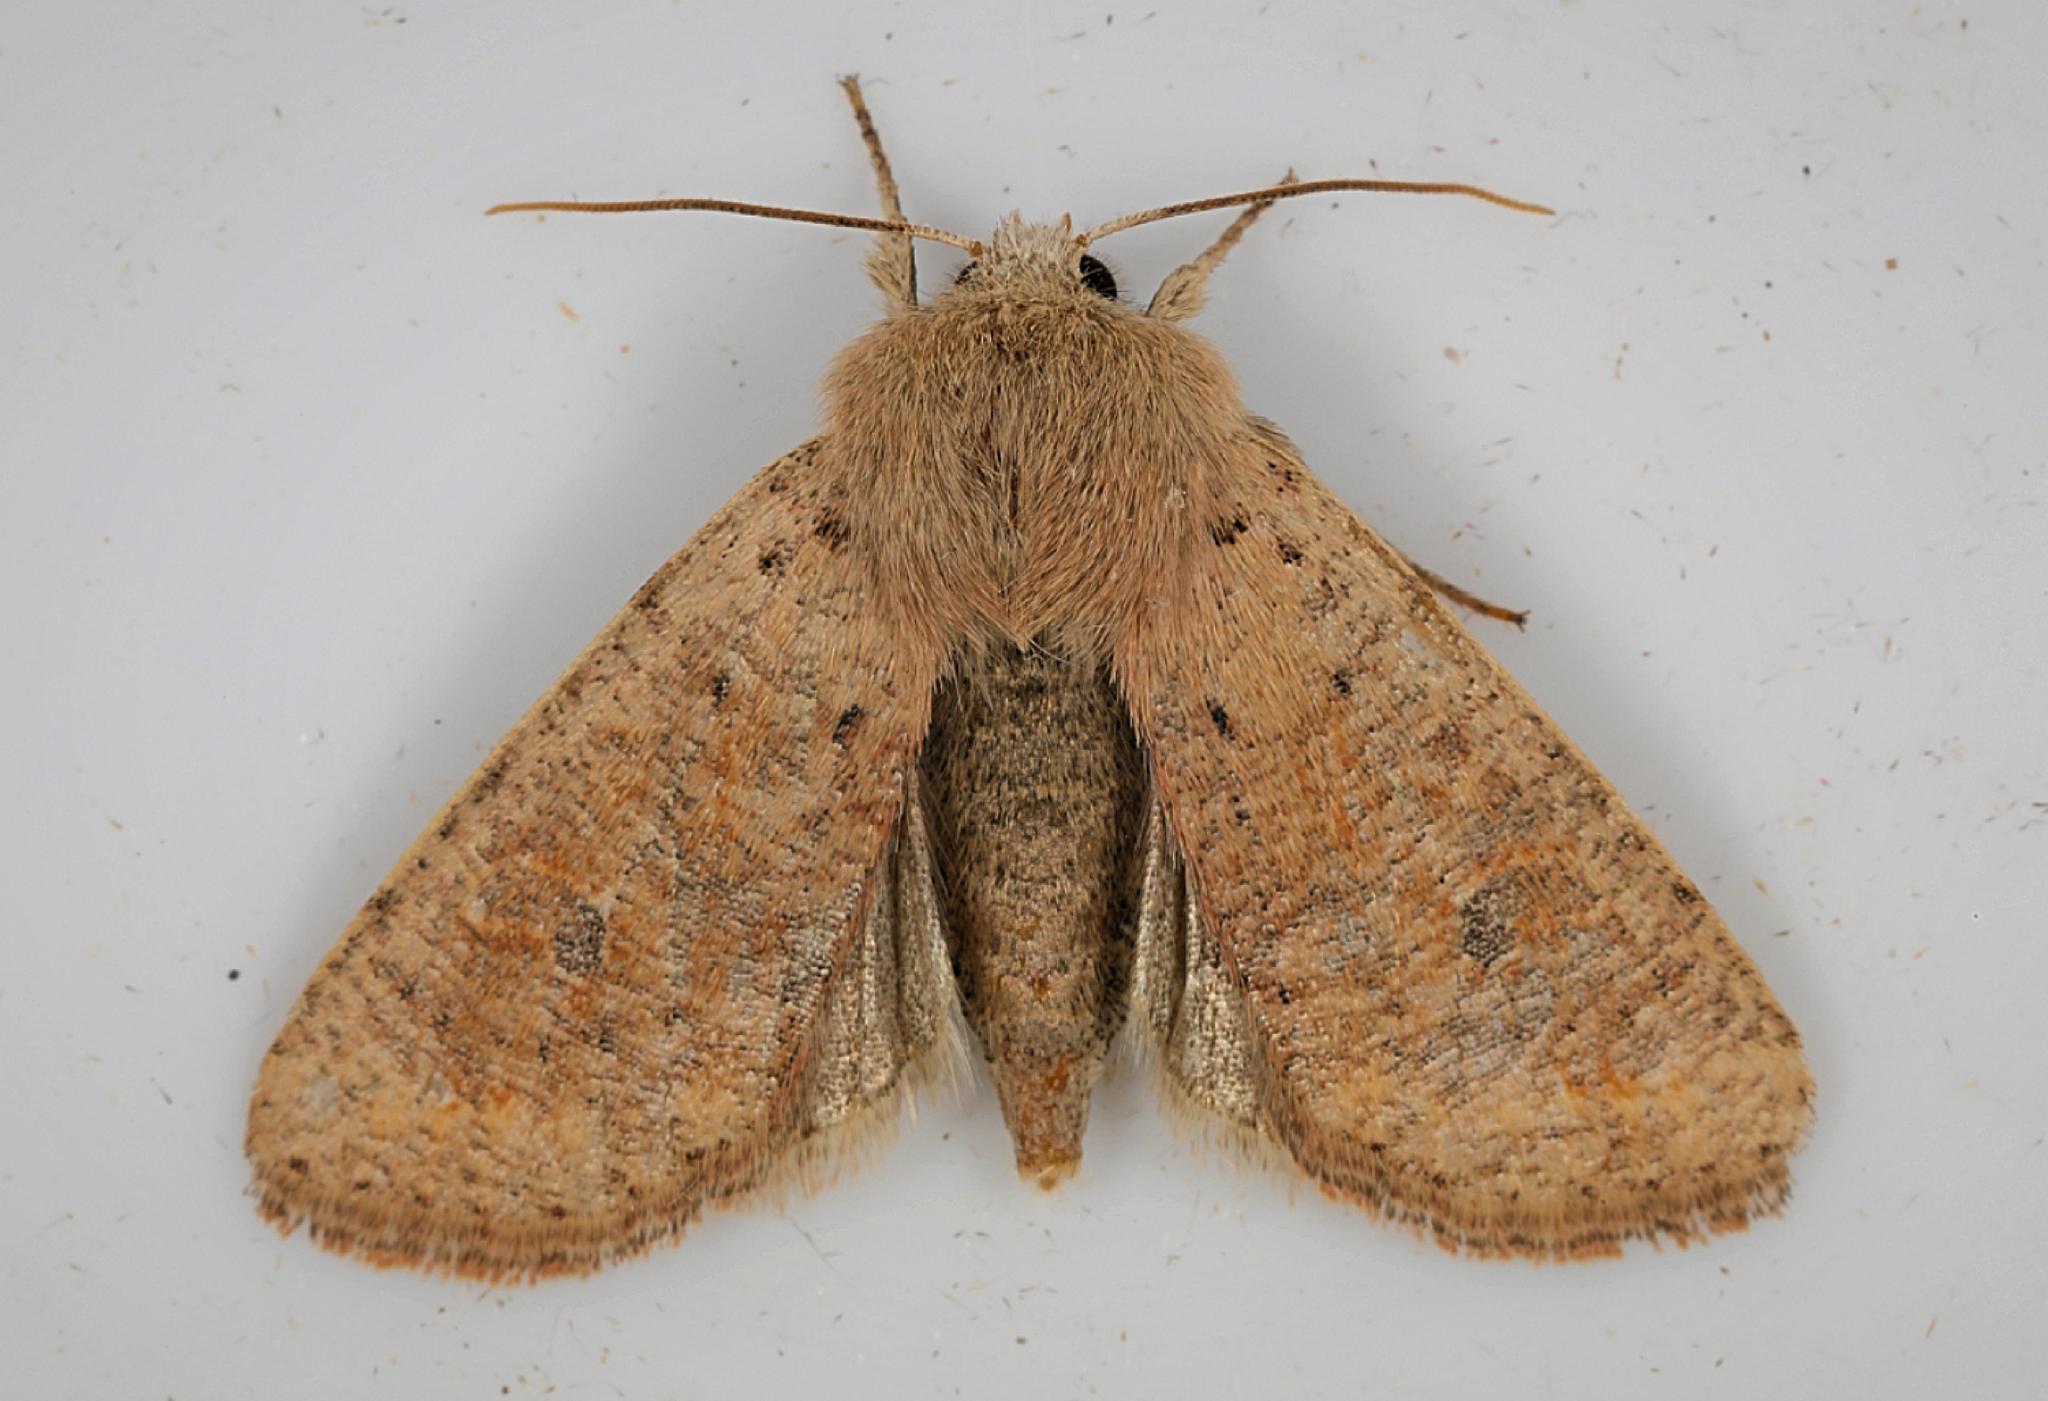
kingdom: Animalia
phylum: Arthropoda
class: Insecta
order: Lepidoptera
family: Noctuidae
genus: Orthosia
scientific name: Orthosia cruda
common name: Small quaker
